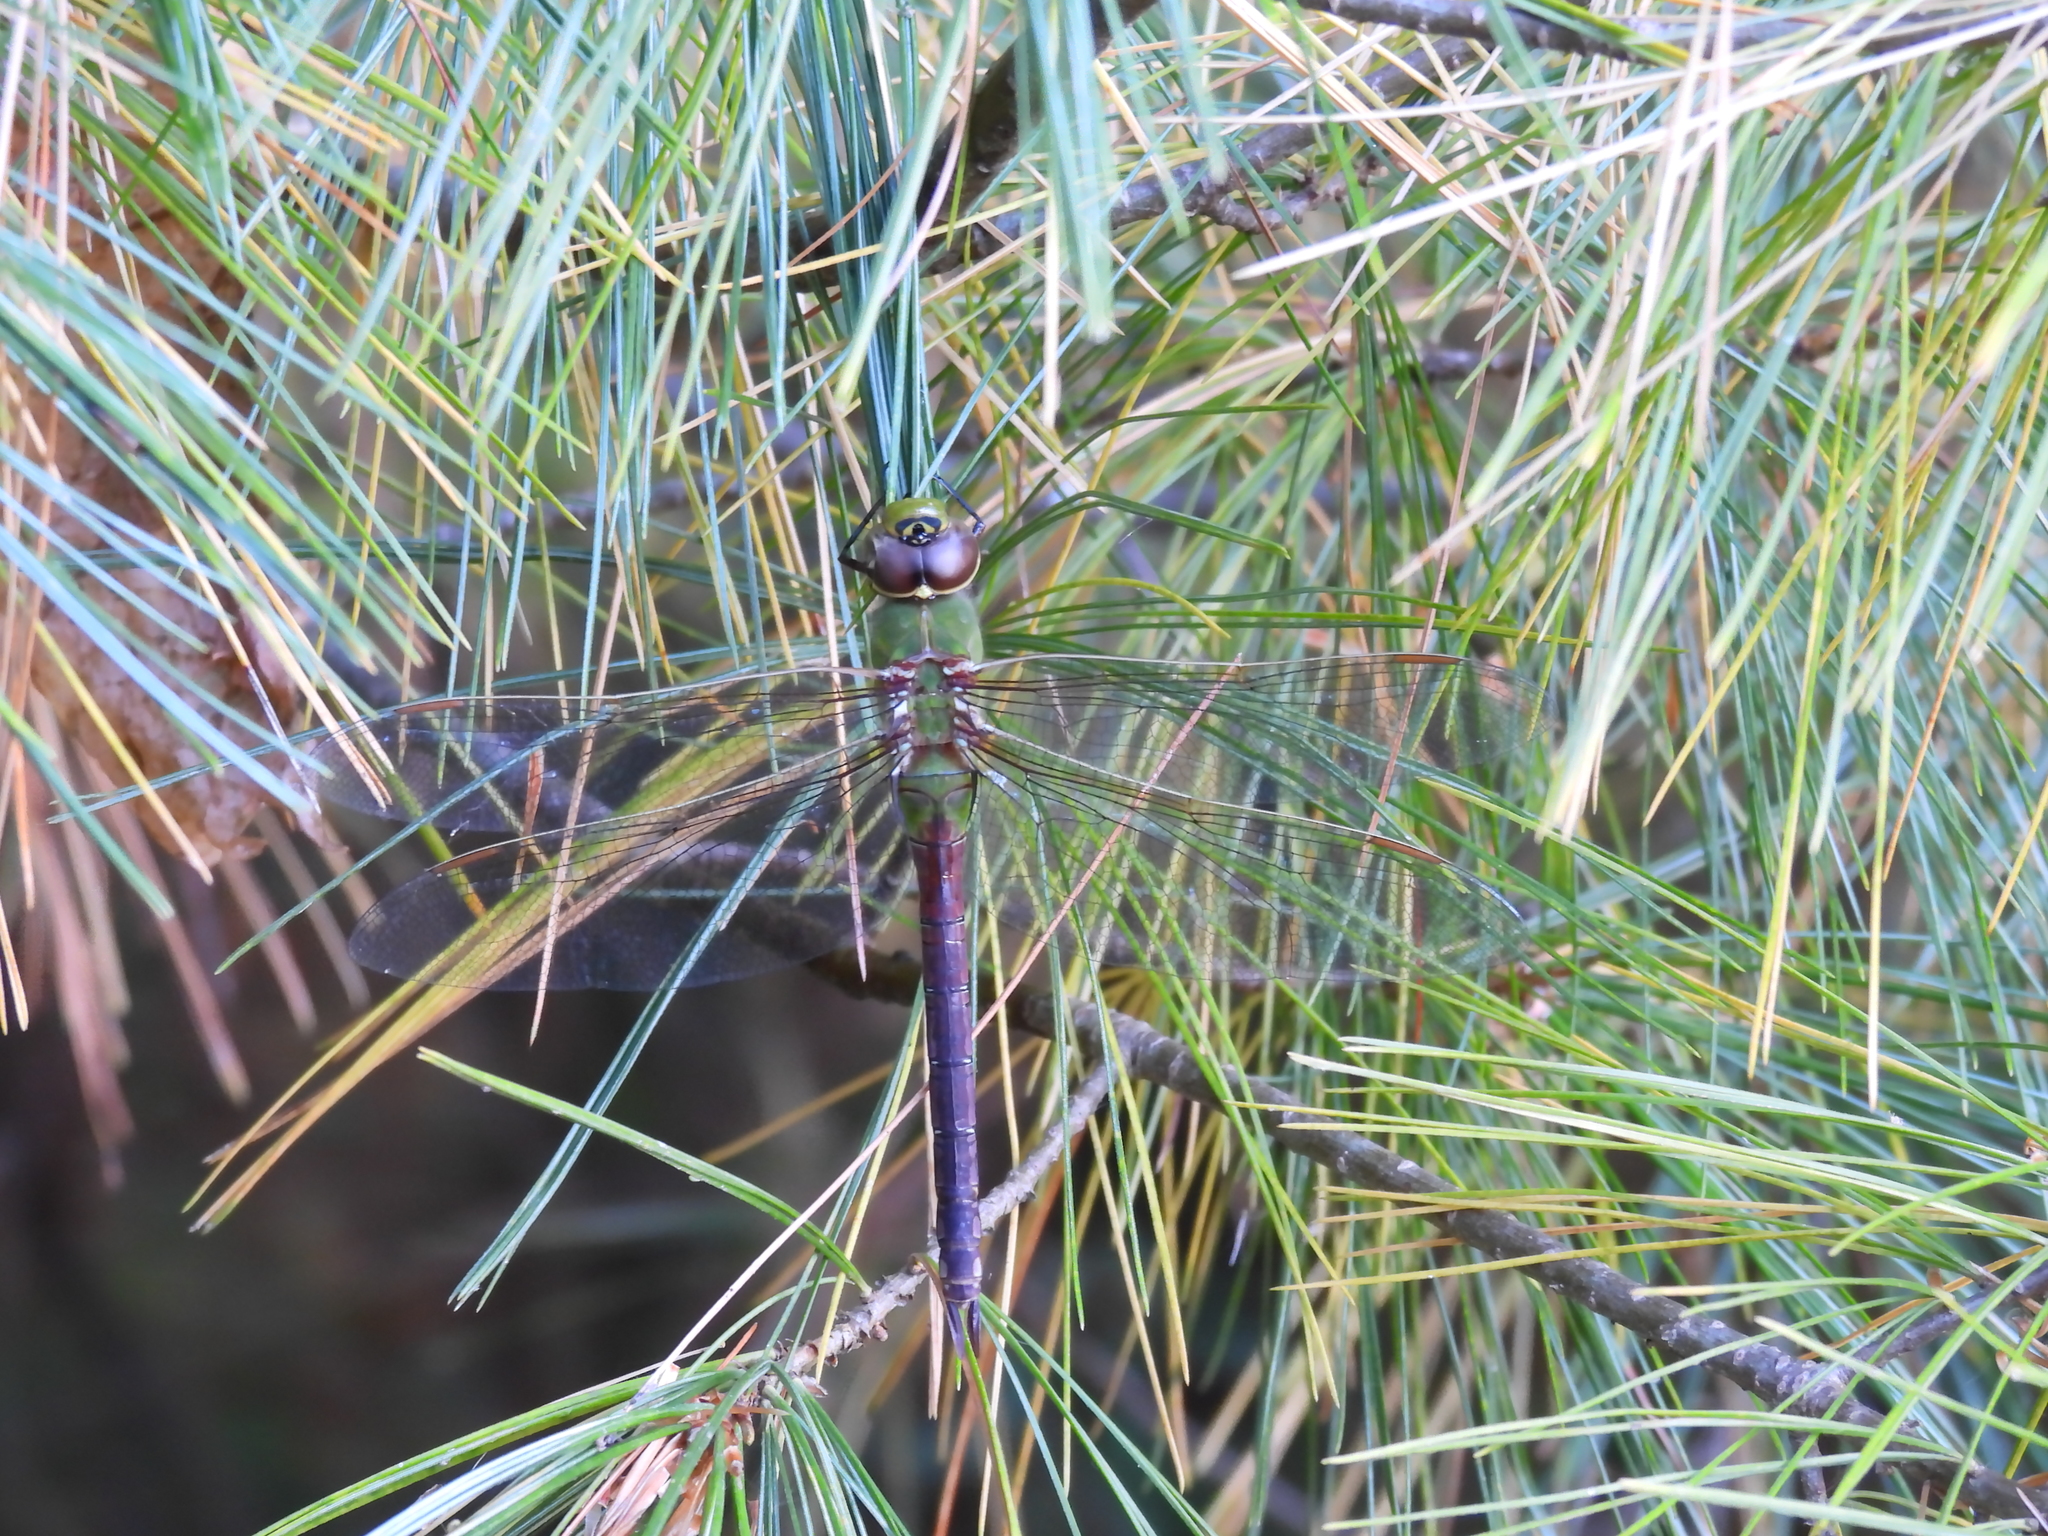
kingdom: Animalia
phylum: Arthropoda
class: Insecta
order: Odonata
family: Aeshnidae
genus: Anax
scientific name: Anax junius
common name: Common green darner
